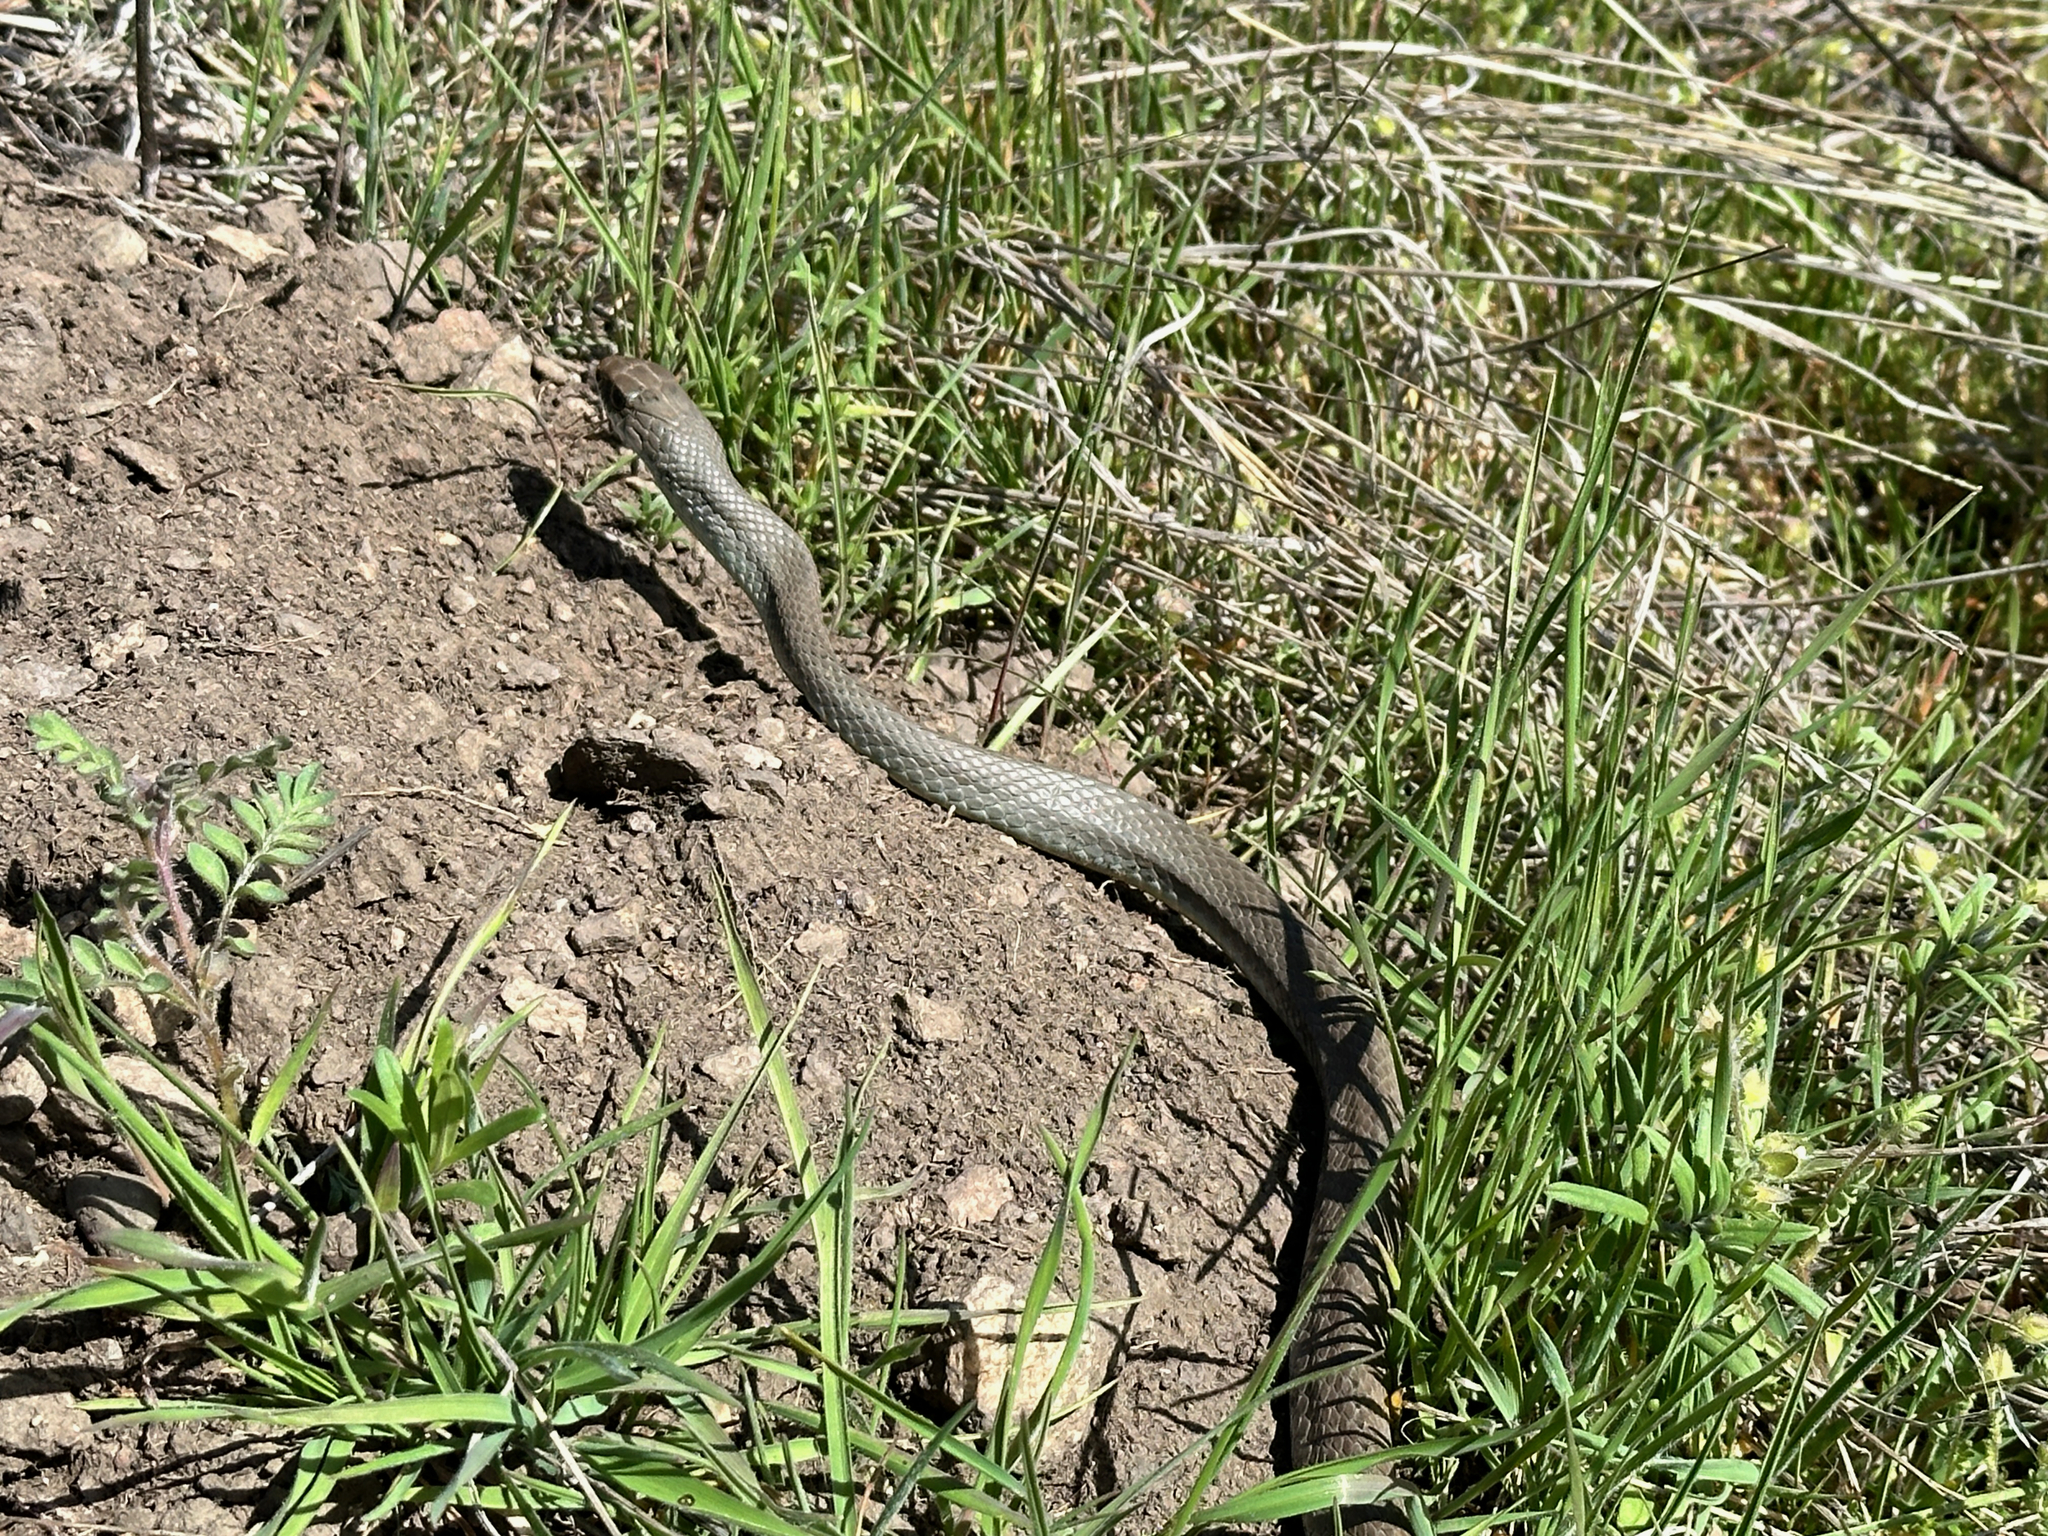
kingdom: Animalia
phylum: Chordata
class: Squamata
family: Colubridae
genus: Coluber
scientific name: Coluber constrictor
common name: Eastern racer
